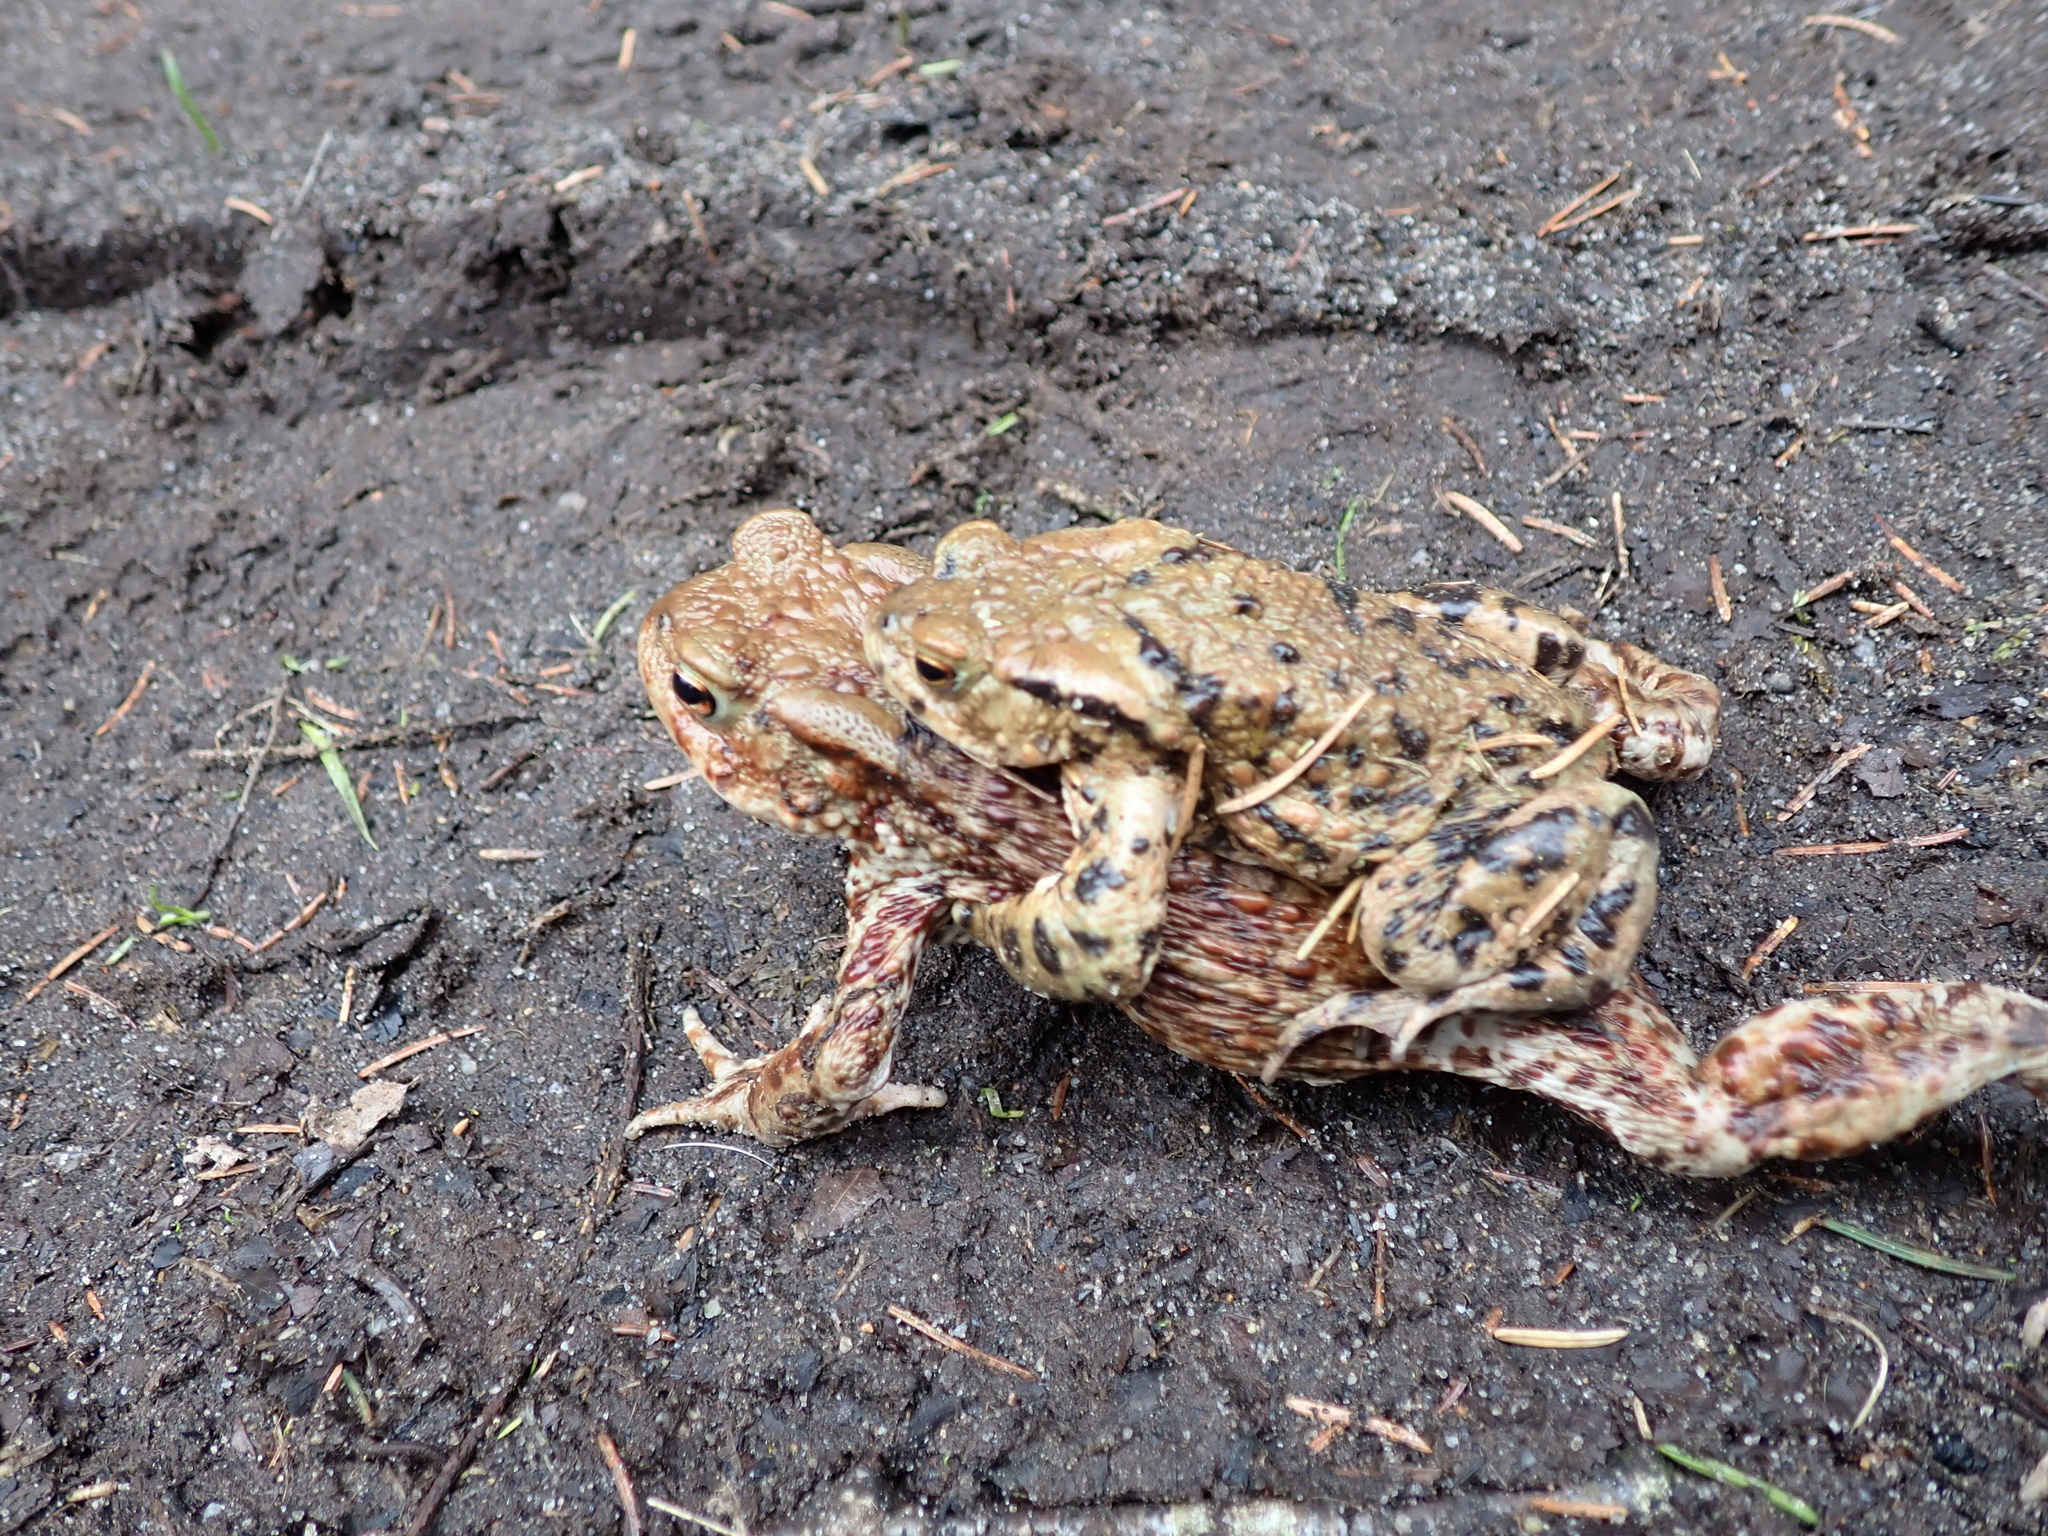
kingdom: Animalia
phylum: Chordata
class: Amphibia
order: Anura
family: Bufonidae
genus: Bufo
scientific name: Bufo bufo
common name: Common toad
